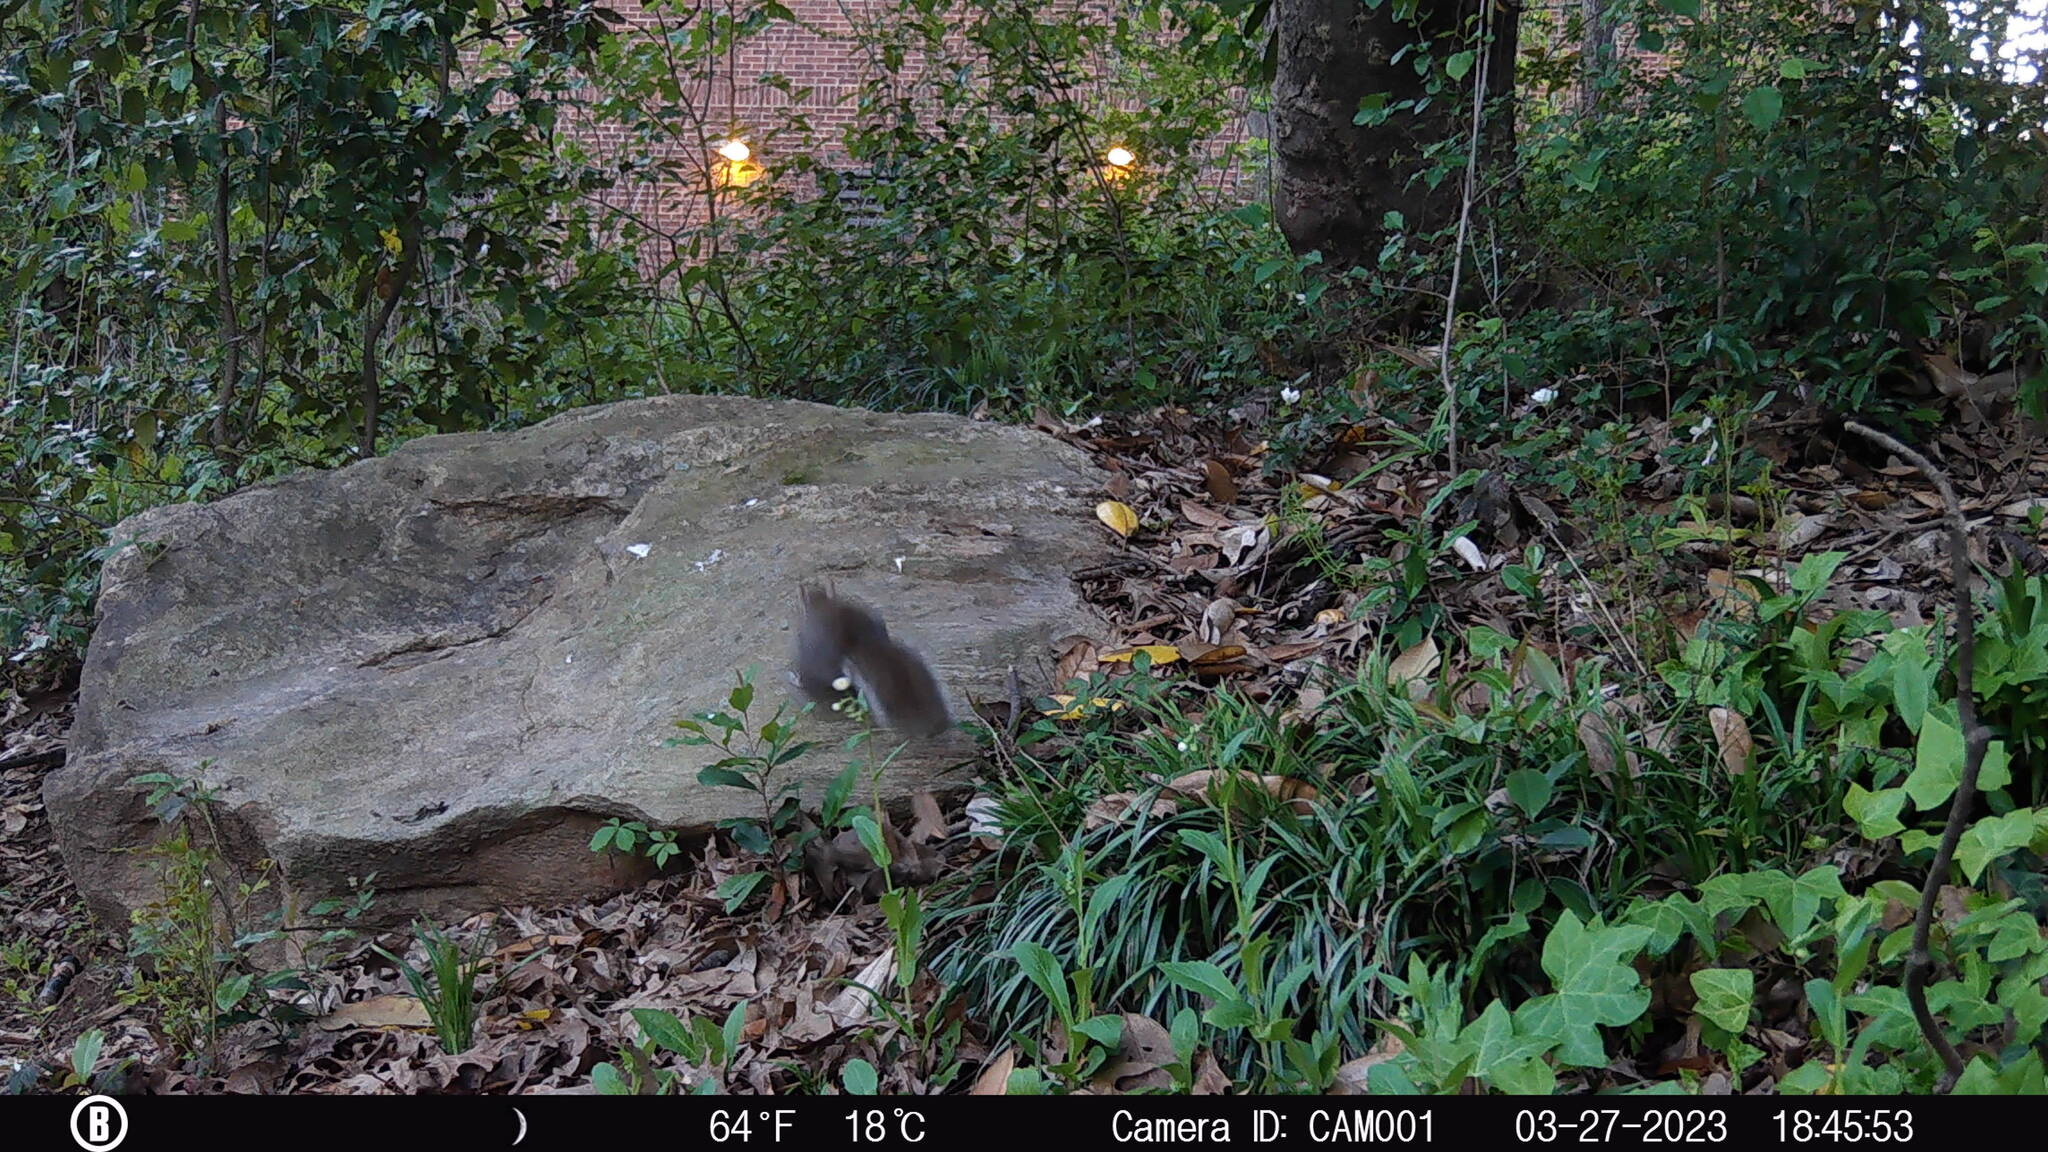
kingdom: Animalia
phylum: Chordata
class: Mammalia
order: Rodentia
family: Sciuridae
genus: Sciurus
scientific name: Sciurus carolinensis
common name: Eastern gray squirrel
